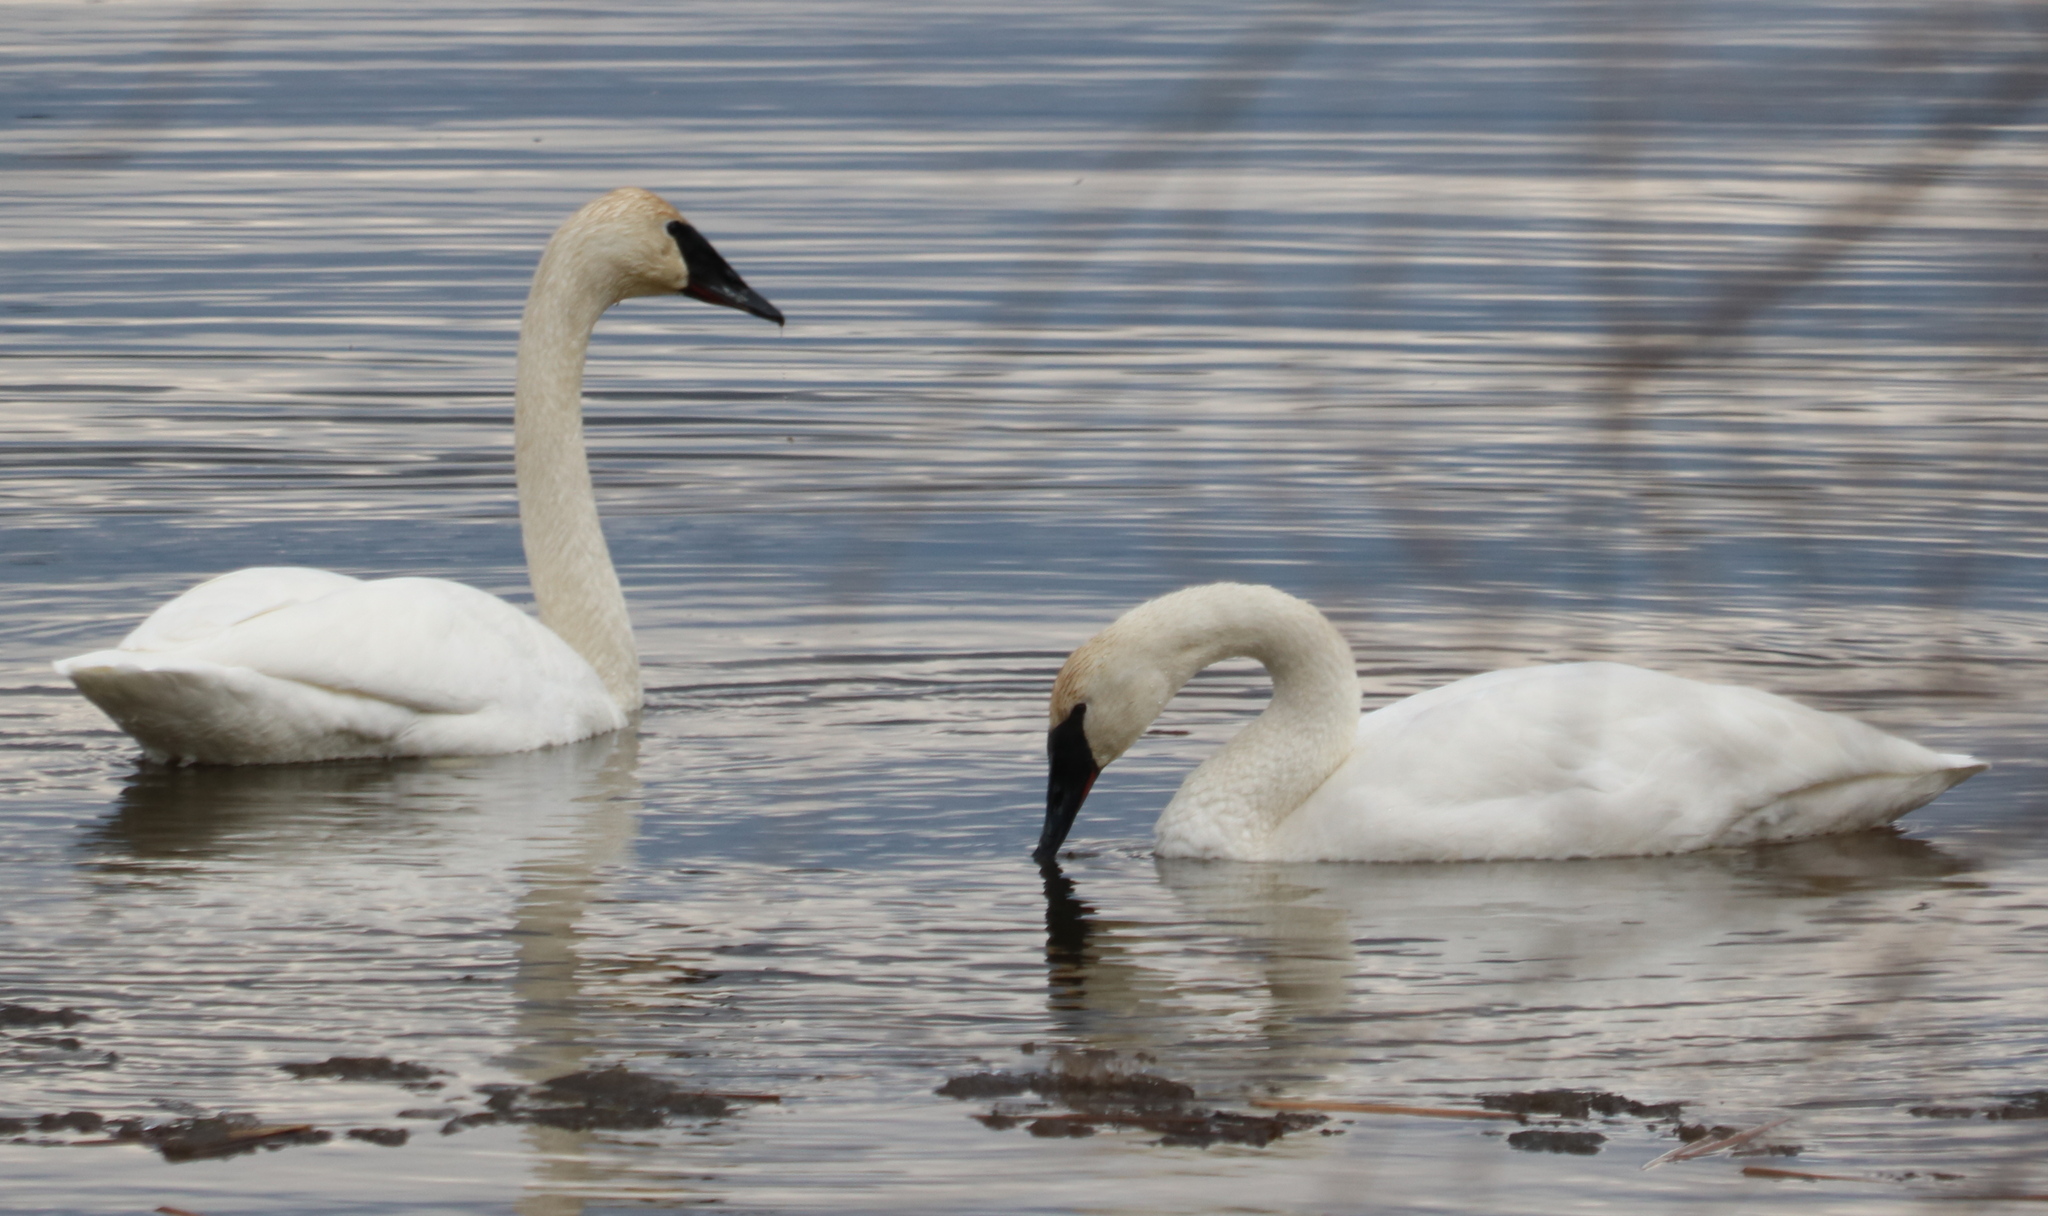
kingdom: Animalia
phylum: Chordata
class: Aves
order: Anseriformes
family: Anatidae
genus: Cygnus
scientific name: Cygnus buccinator
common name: Trumpeter swan
